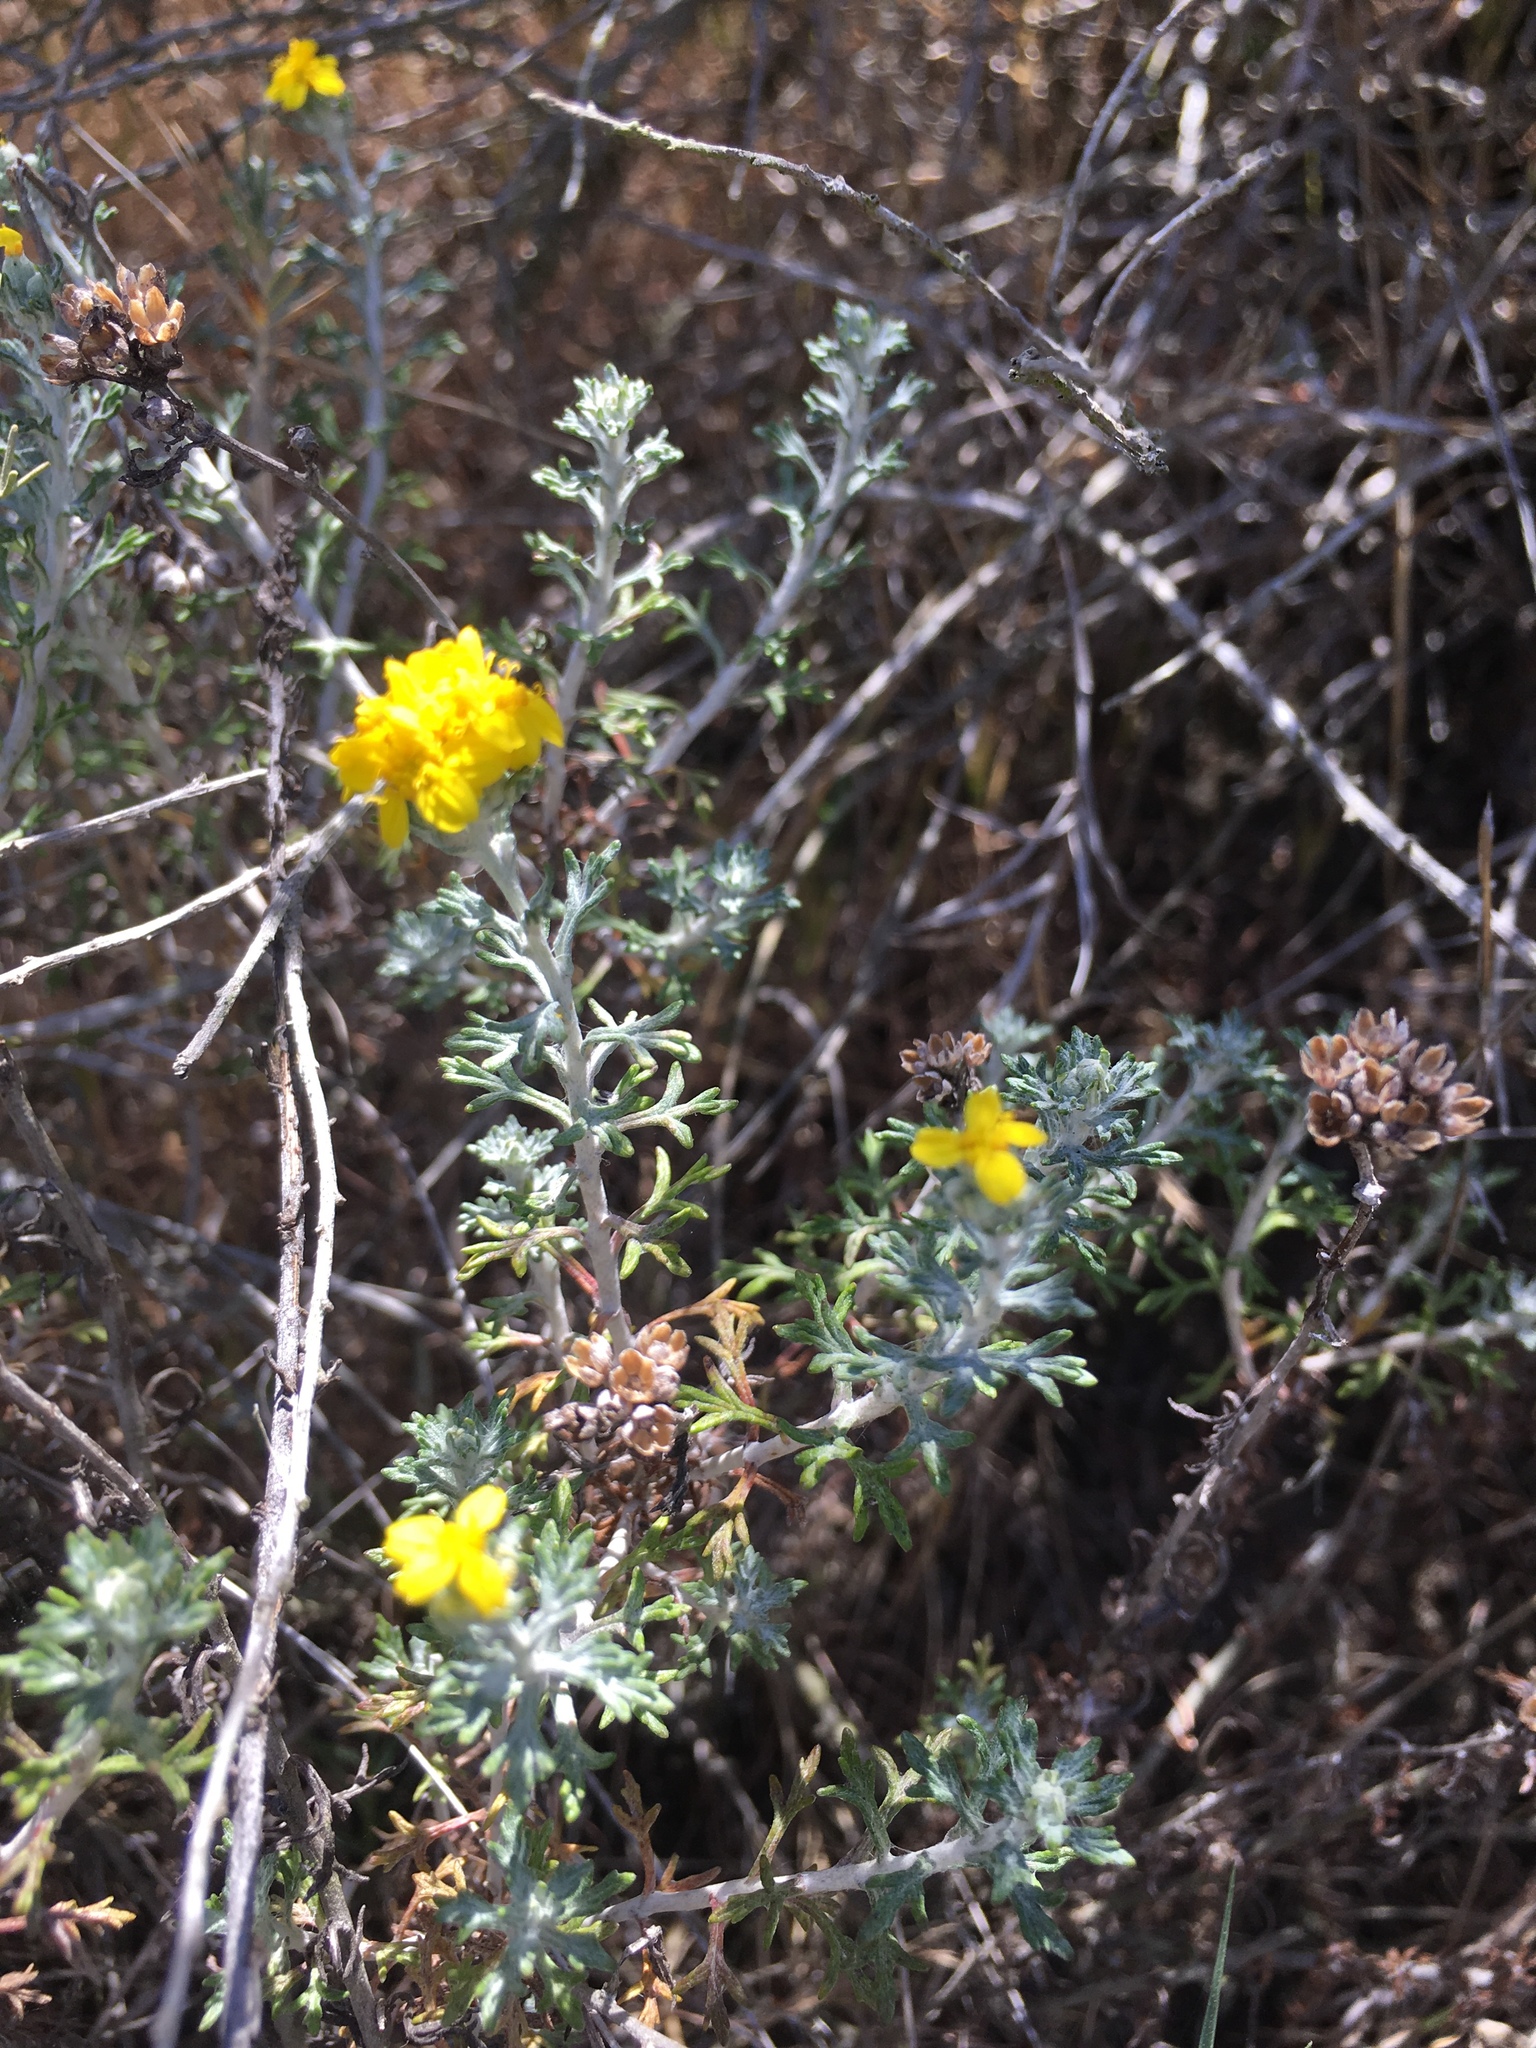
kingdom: Plantae
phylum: Tracheophyta
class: Magnoliopsida
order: Asterales
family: Asteraceae
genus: Eriophyllum
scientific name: Eriophyllum confertiflorum
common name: Golden-yarrow
